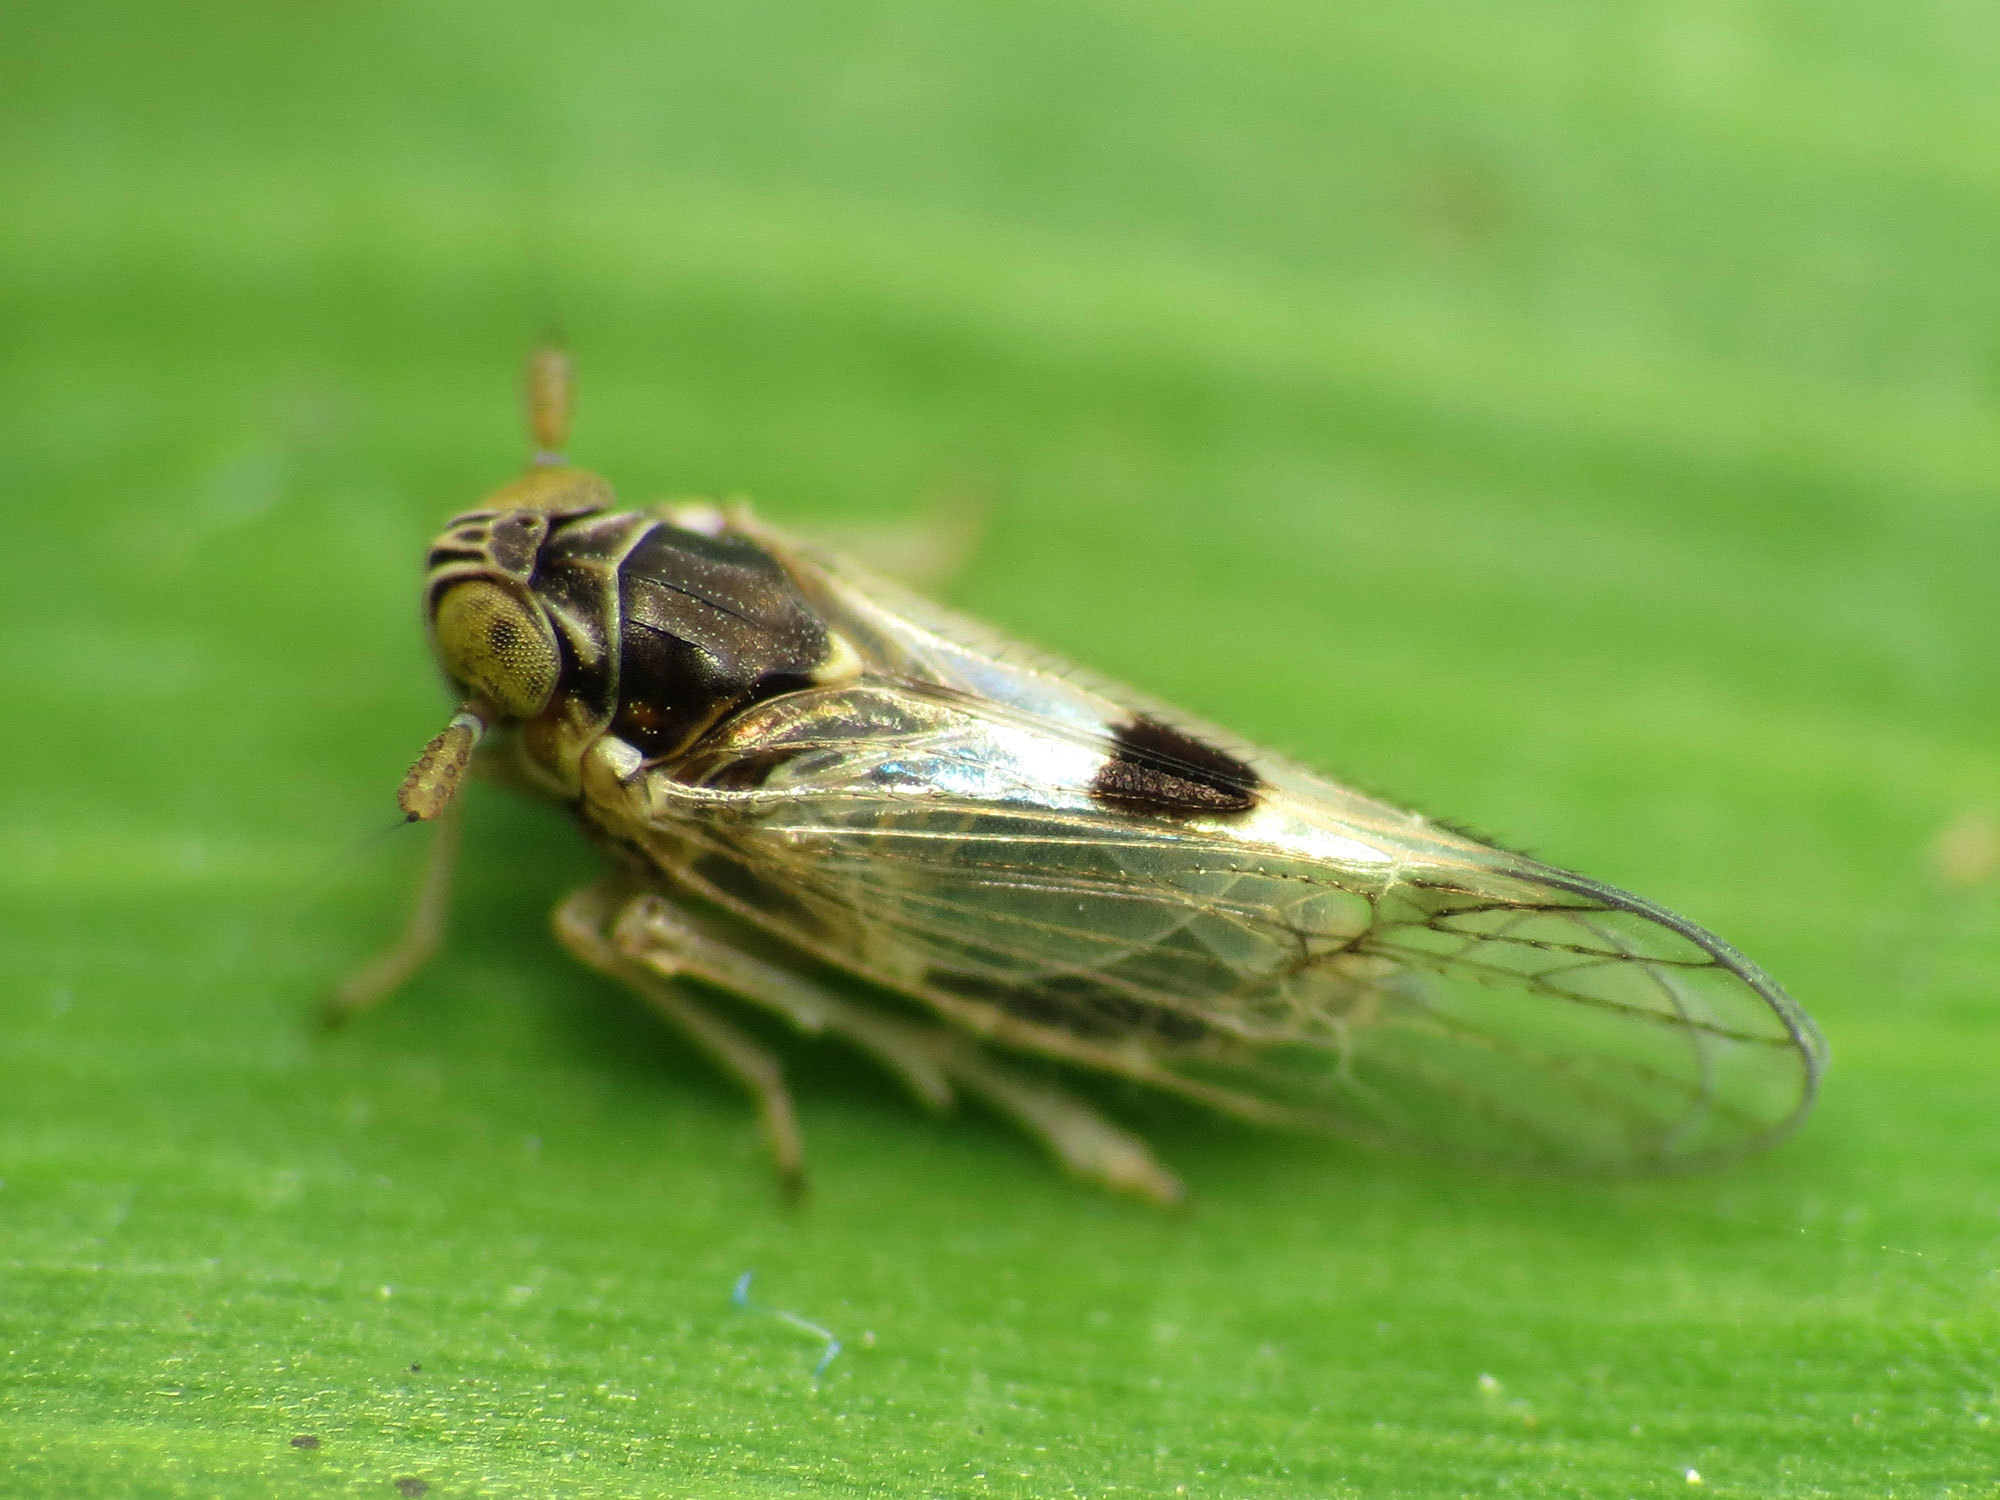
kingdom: Animalia
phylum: Arthropoda
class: Insecta
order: Hemiptera
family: Delphacidae
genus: Chionomus
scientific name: Chionomus
